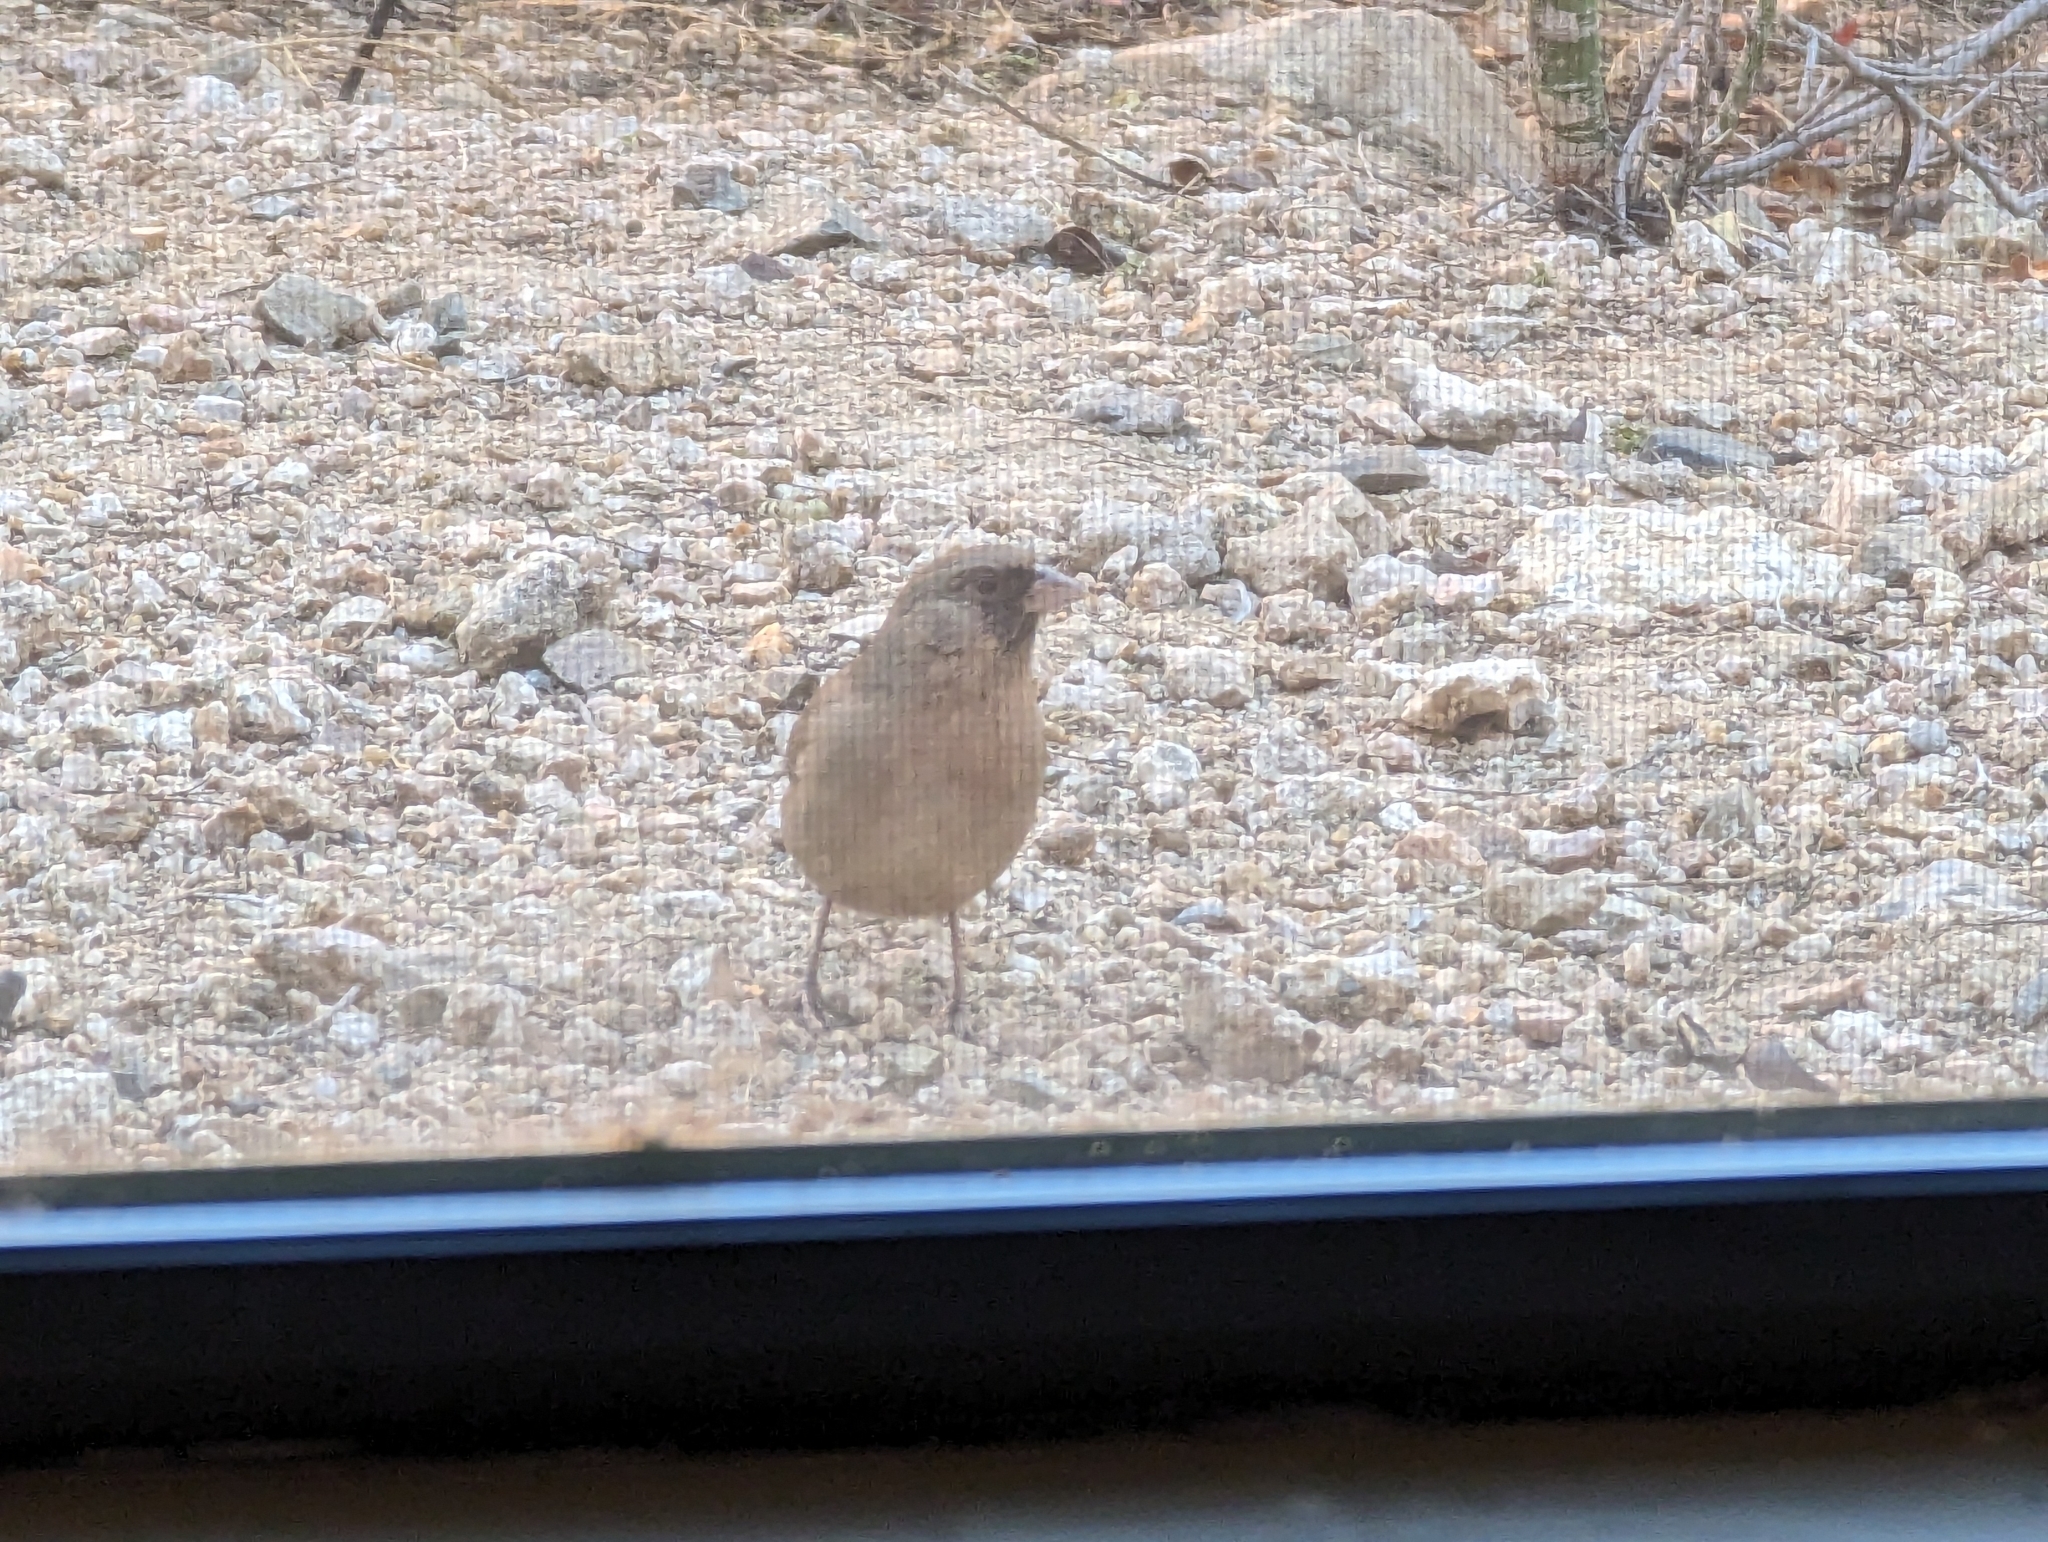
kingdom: Animalia
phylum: Chordata
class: Aves
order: Passeriformes
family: Passerellidae
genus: Melozone
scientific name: Melozone aberti
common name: Abert's towhee
